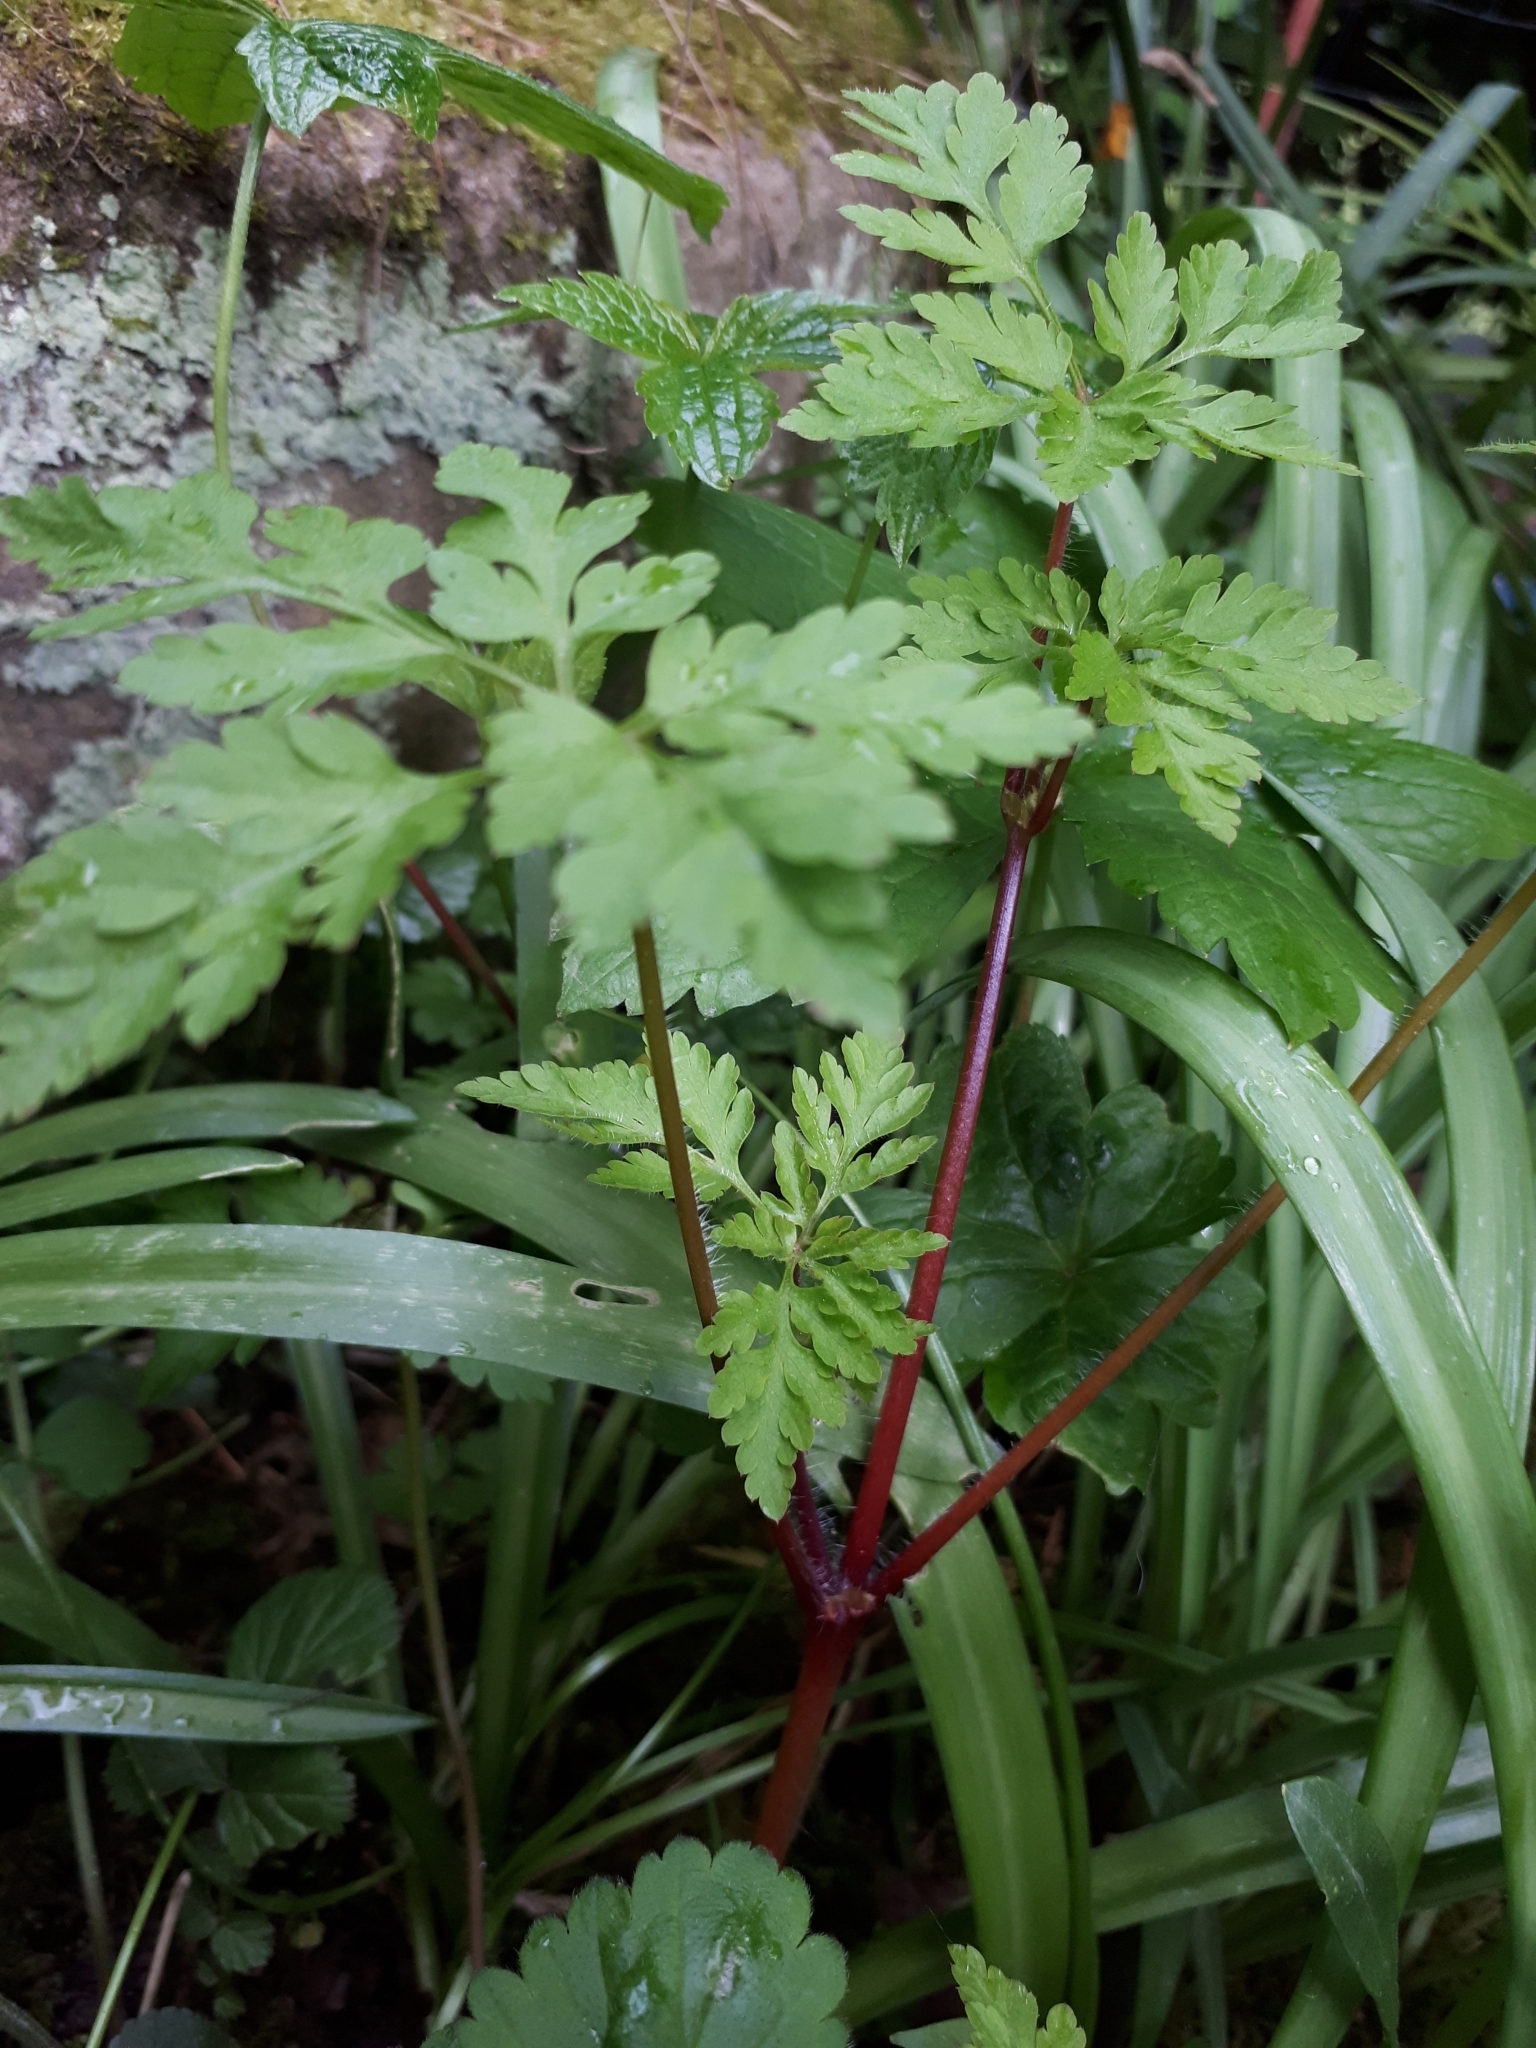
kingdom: Plantae
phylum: Tracheophyta
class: Magnoliopsida
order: Geraniales
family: Geraniaceae
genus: Geranium
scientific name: Geranium robertianum
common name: Herb-robert
